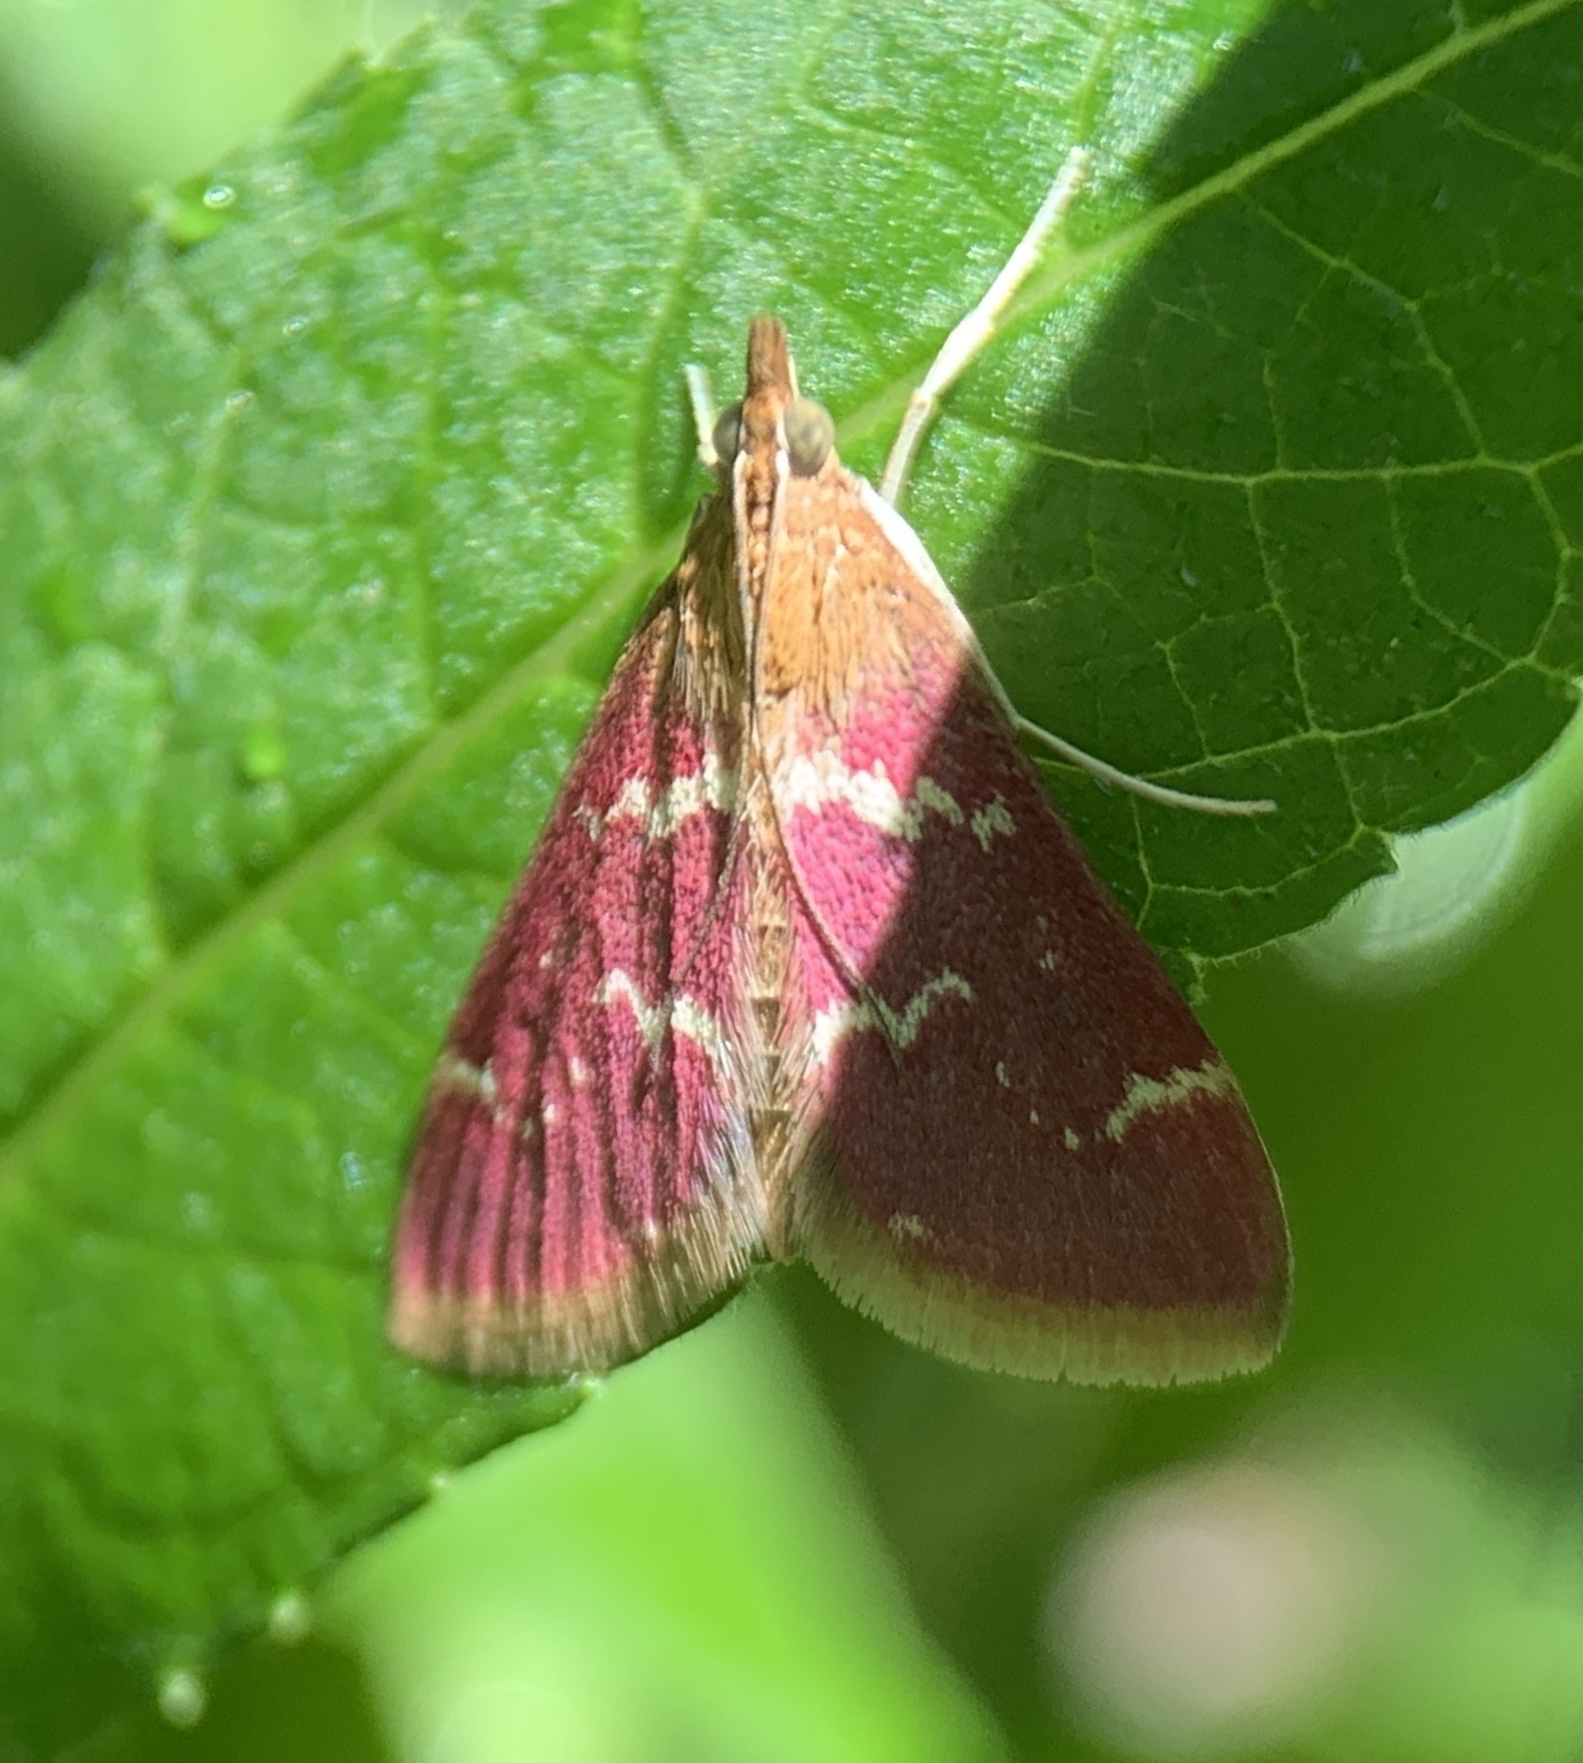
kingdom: Animalia
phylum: Arthropoda
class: Insecta
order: Lepidoptera
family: Crambidae
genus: Pyrausta
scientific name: Pyrausta signatalis
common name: Raspberry pyrausta moth
